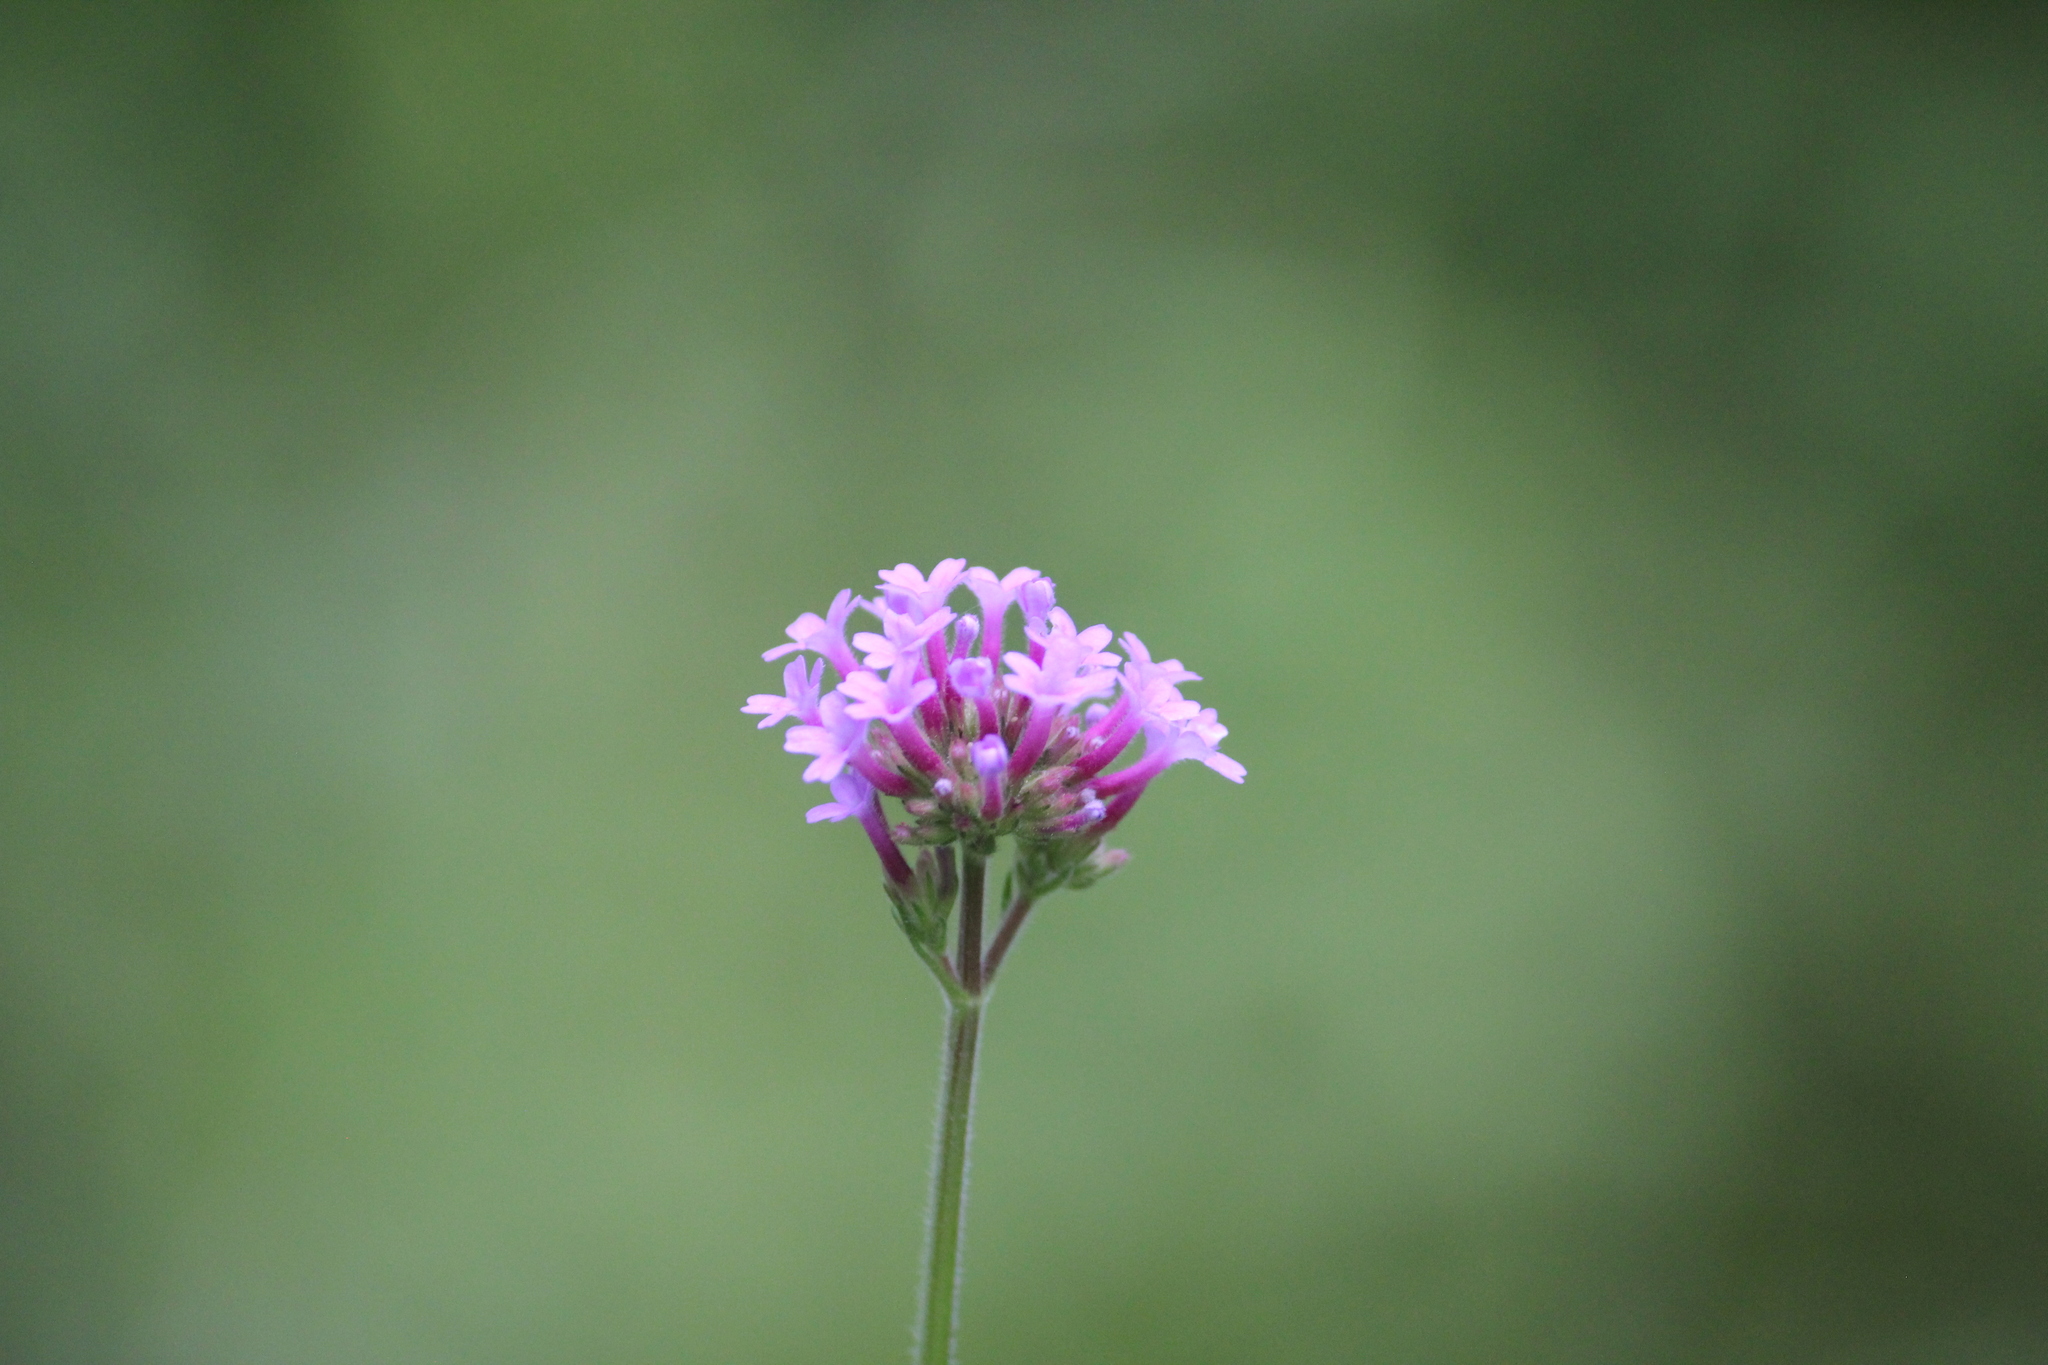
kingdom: Plantae
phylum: Tracheophyta
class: Magnoliopsida
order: Lamiales
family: Verbenaceae
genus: Verbena
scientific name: Verbena bonariensis
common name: Purpletop vervain
